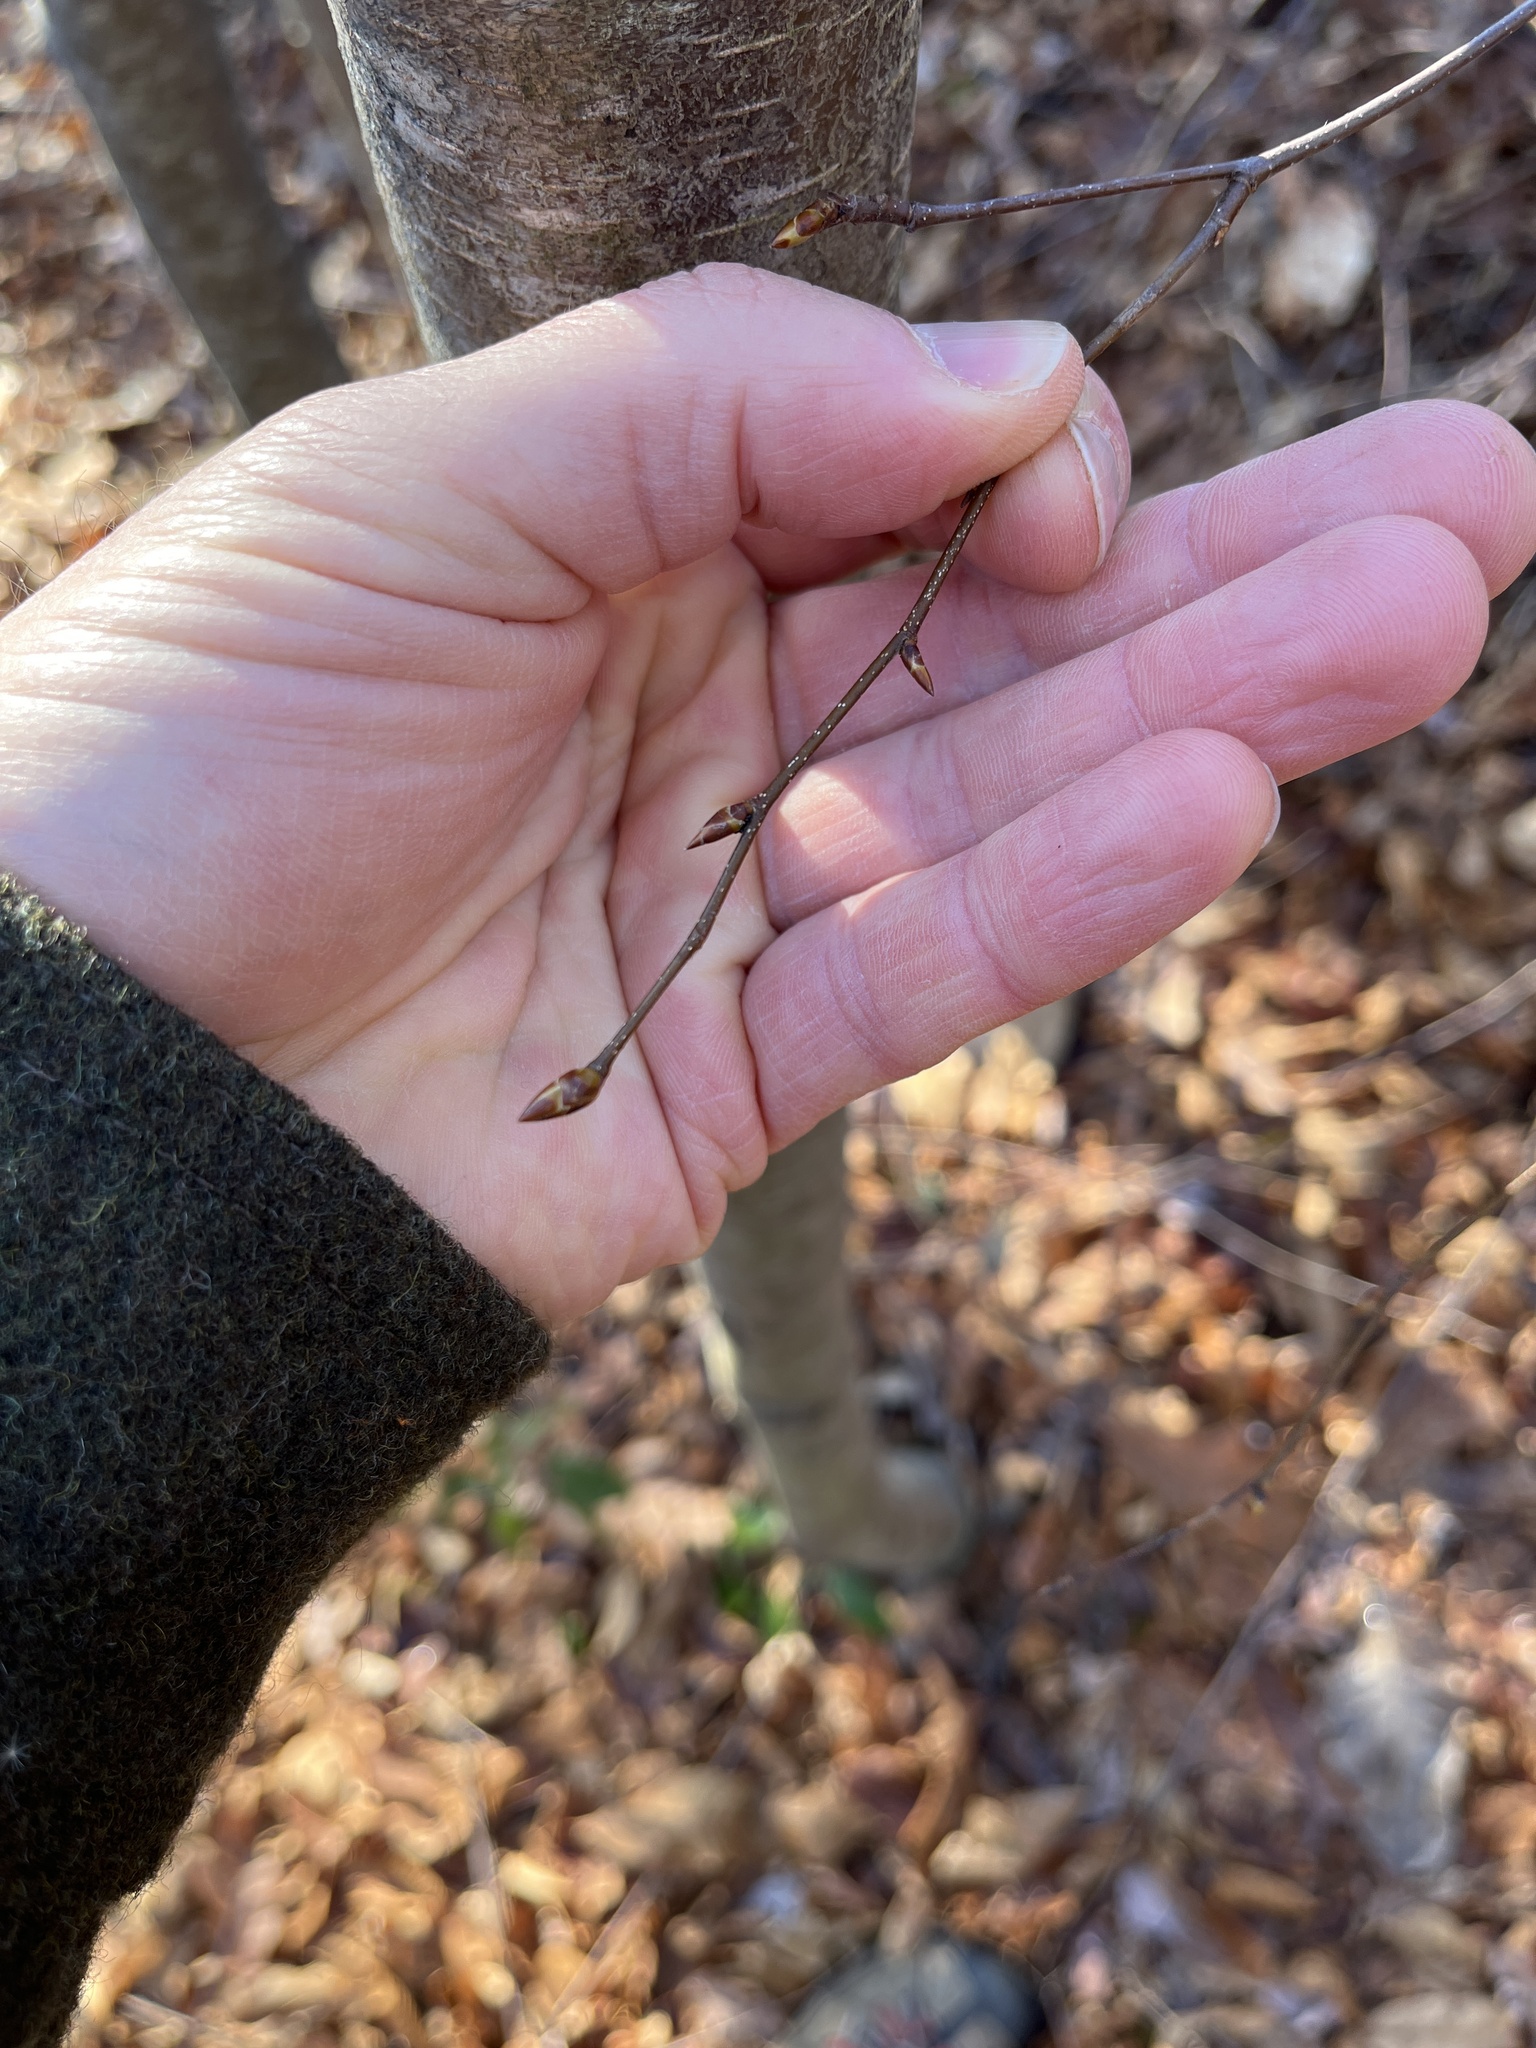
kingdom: Plantae
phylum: Tracheophyta
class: Magnoliopsida
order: Fagales
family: Betulaceae
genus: Betula
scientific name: Betula lenta
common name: Black birch
